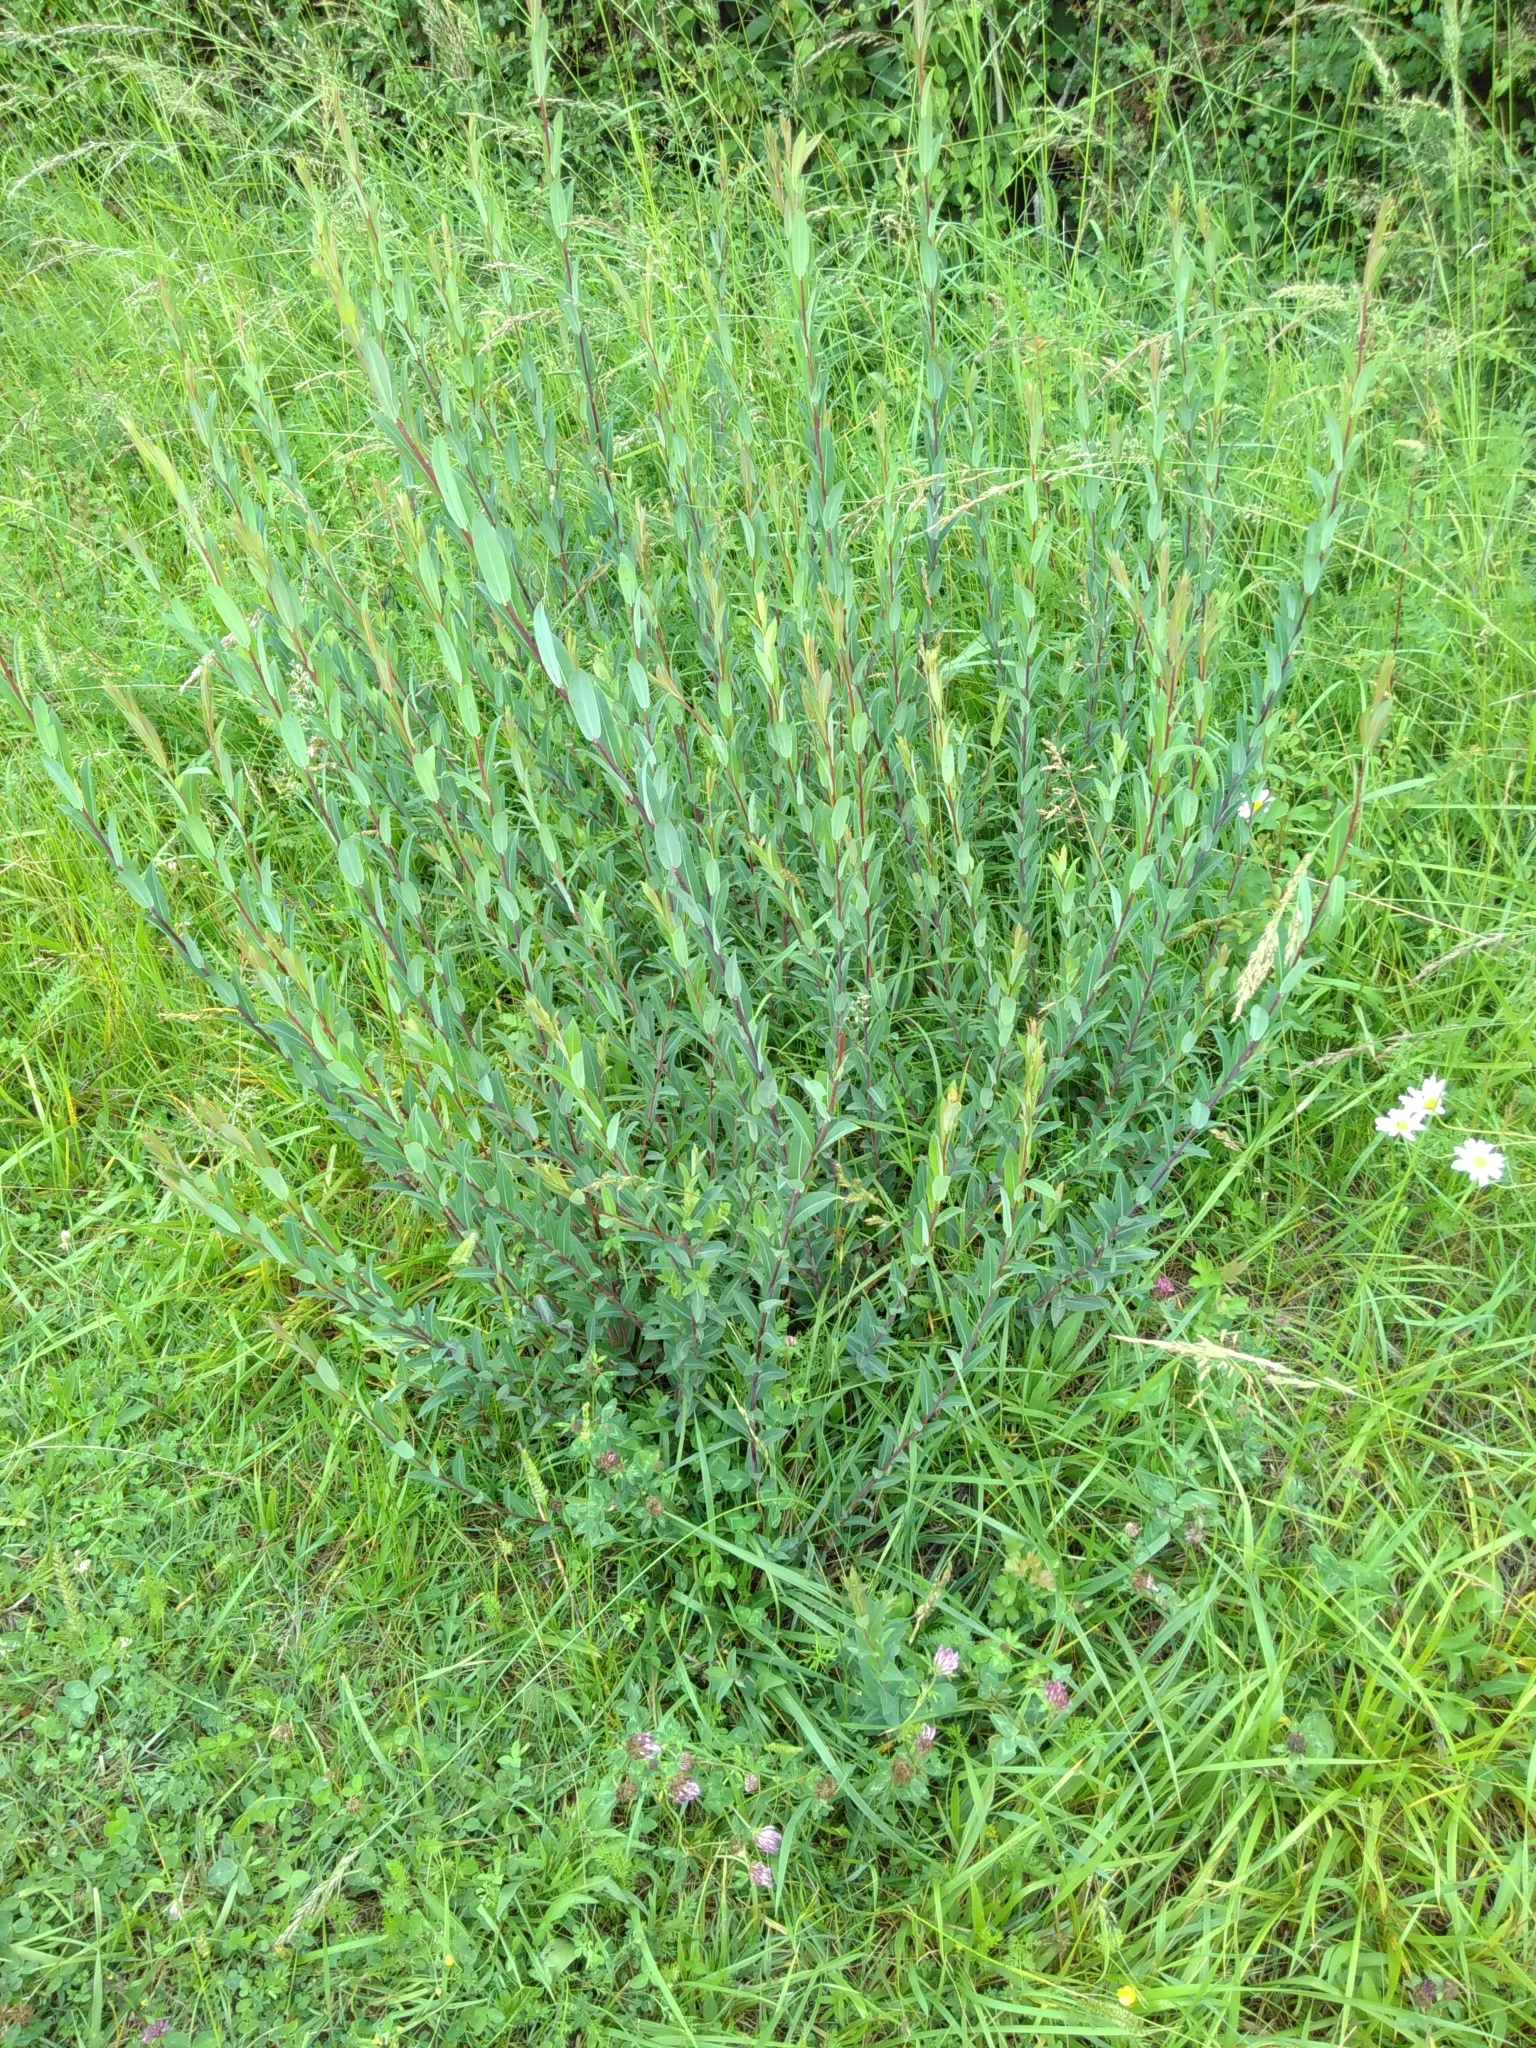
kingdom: Plantae
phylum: Tracheophyta
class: Magnoliopsida
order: Malpighiales
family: Salicaceae
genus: Salix
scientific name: Salix purpurea
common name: Purple willow
